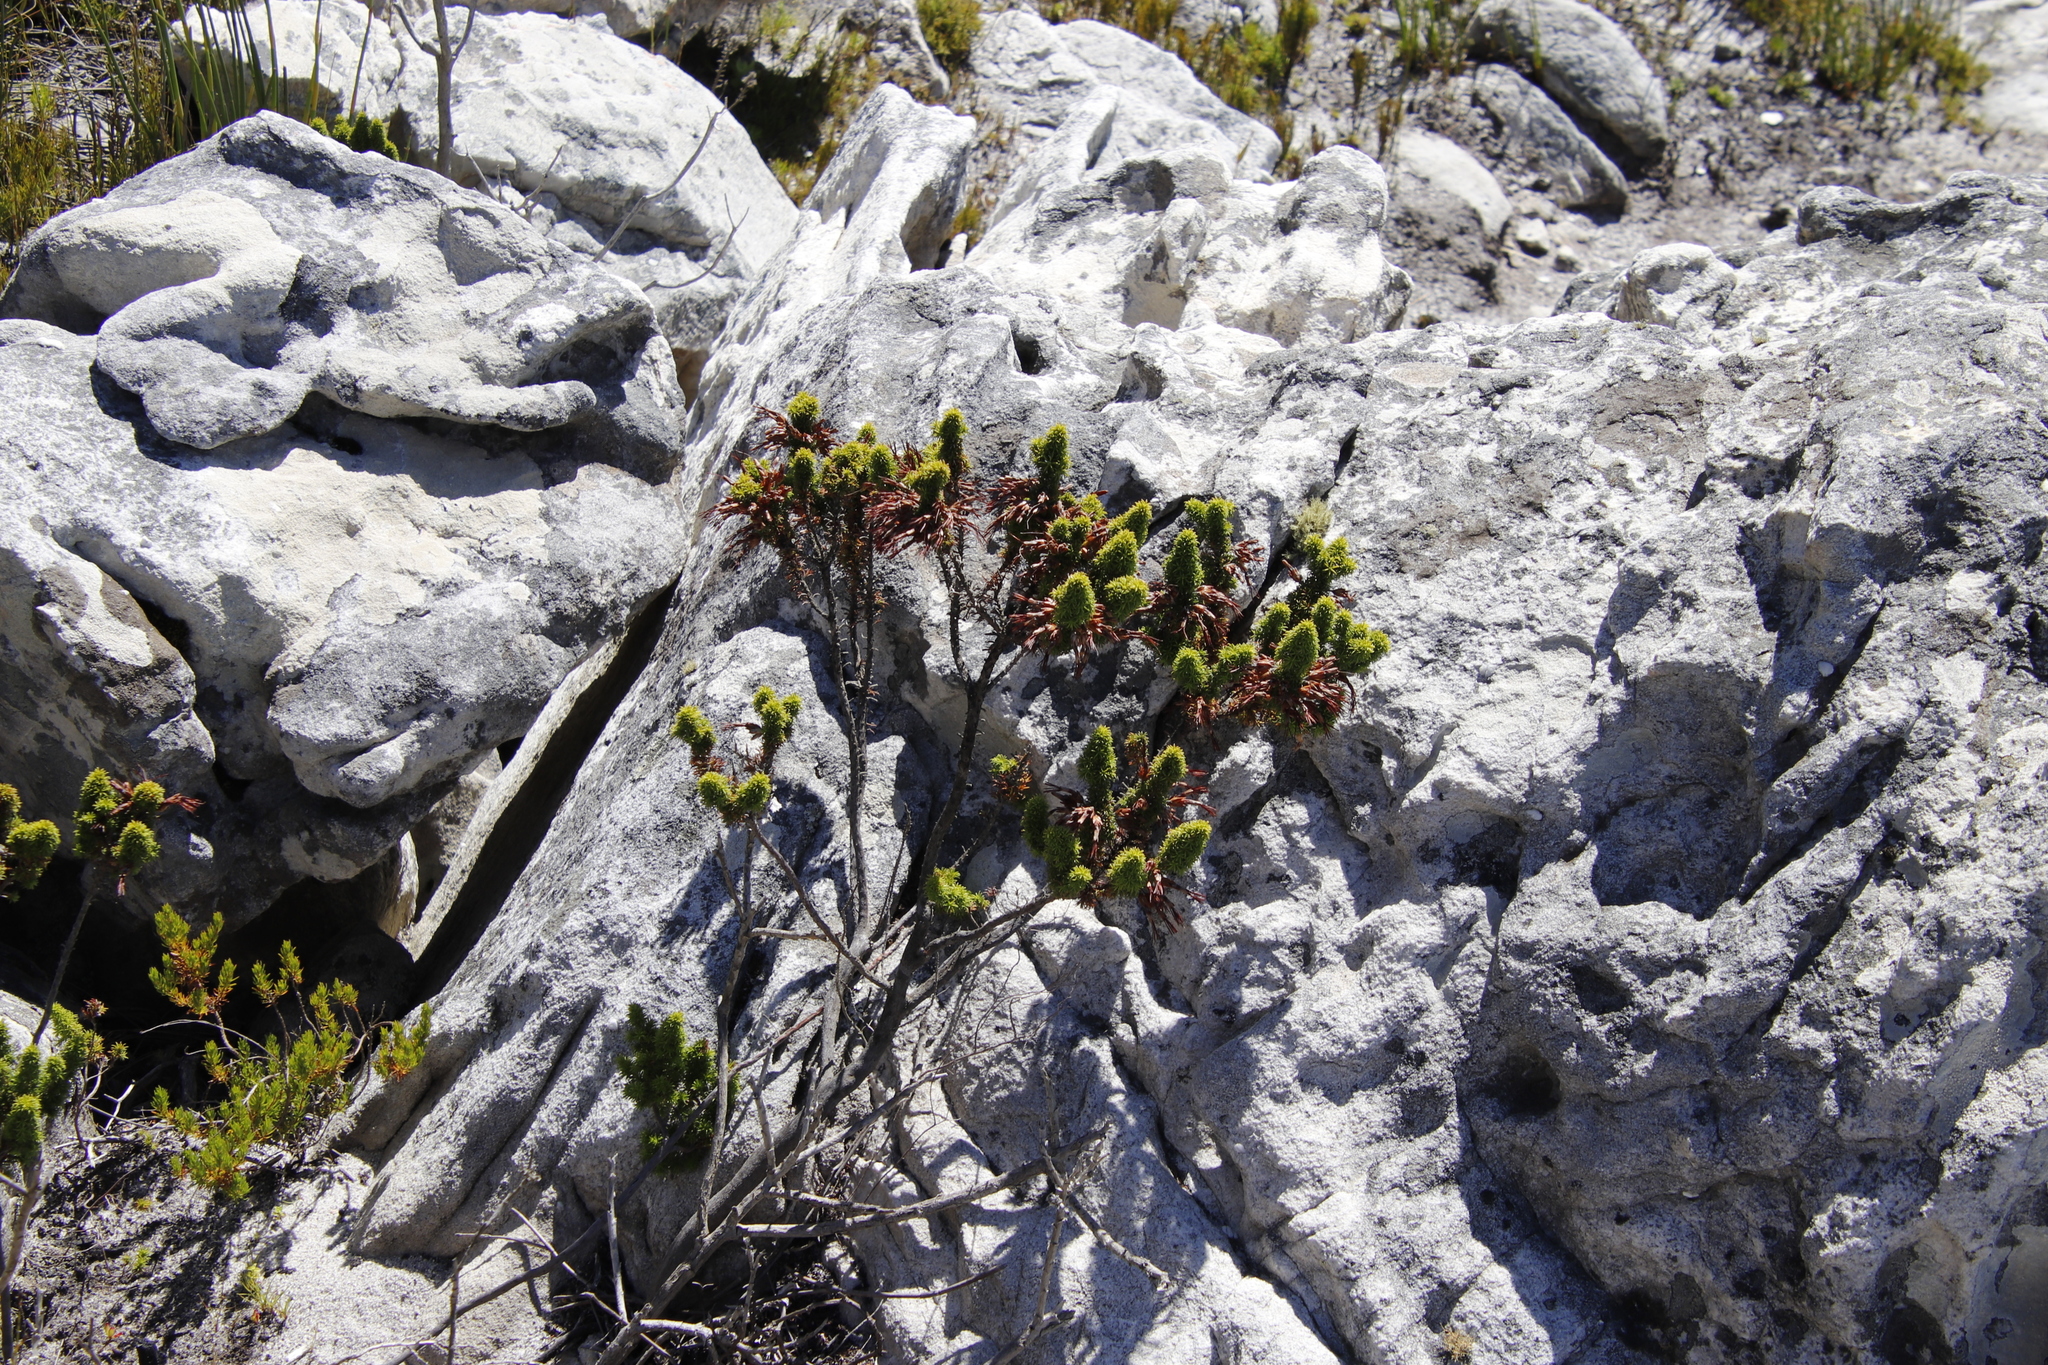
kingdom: Plantae
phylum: Tracheophyta
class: Magnoliopsida
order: Ericales
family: Ericaceae
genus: Erica
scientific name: Erica coccinea
